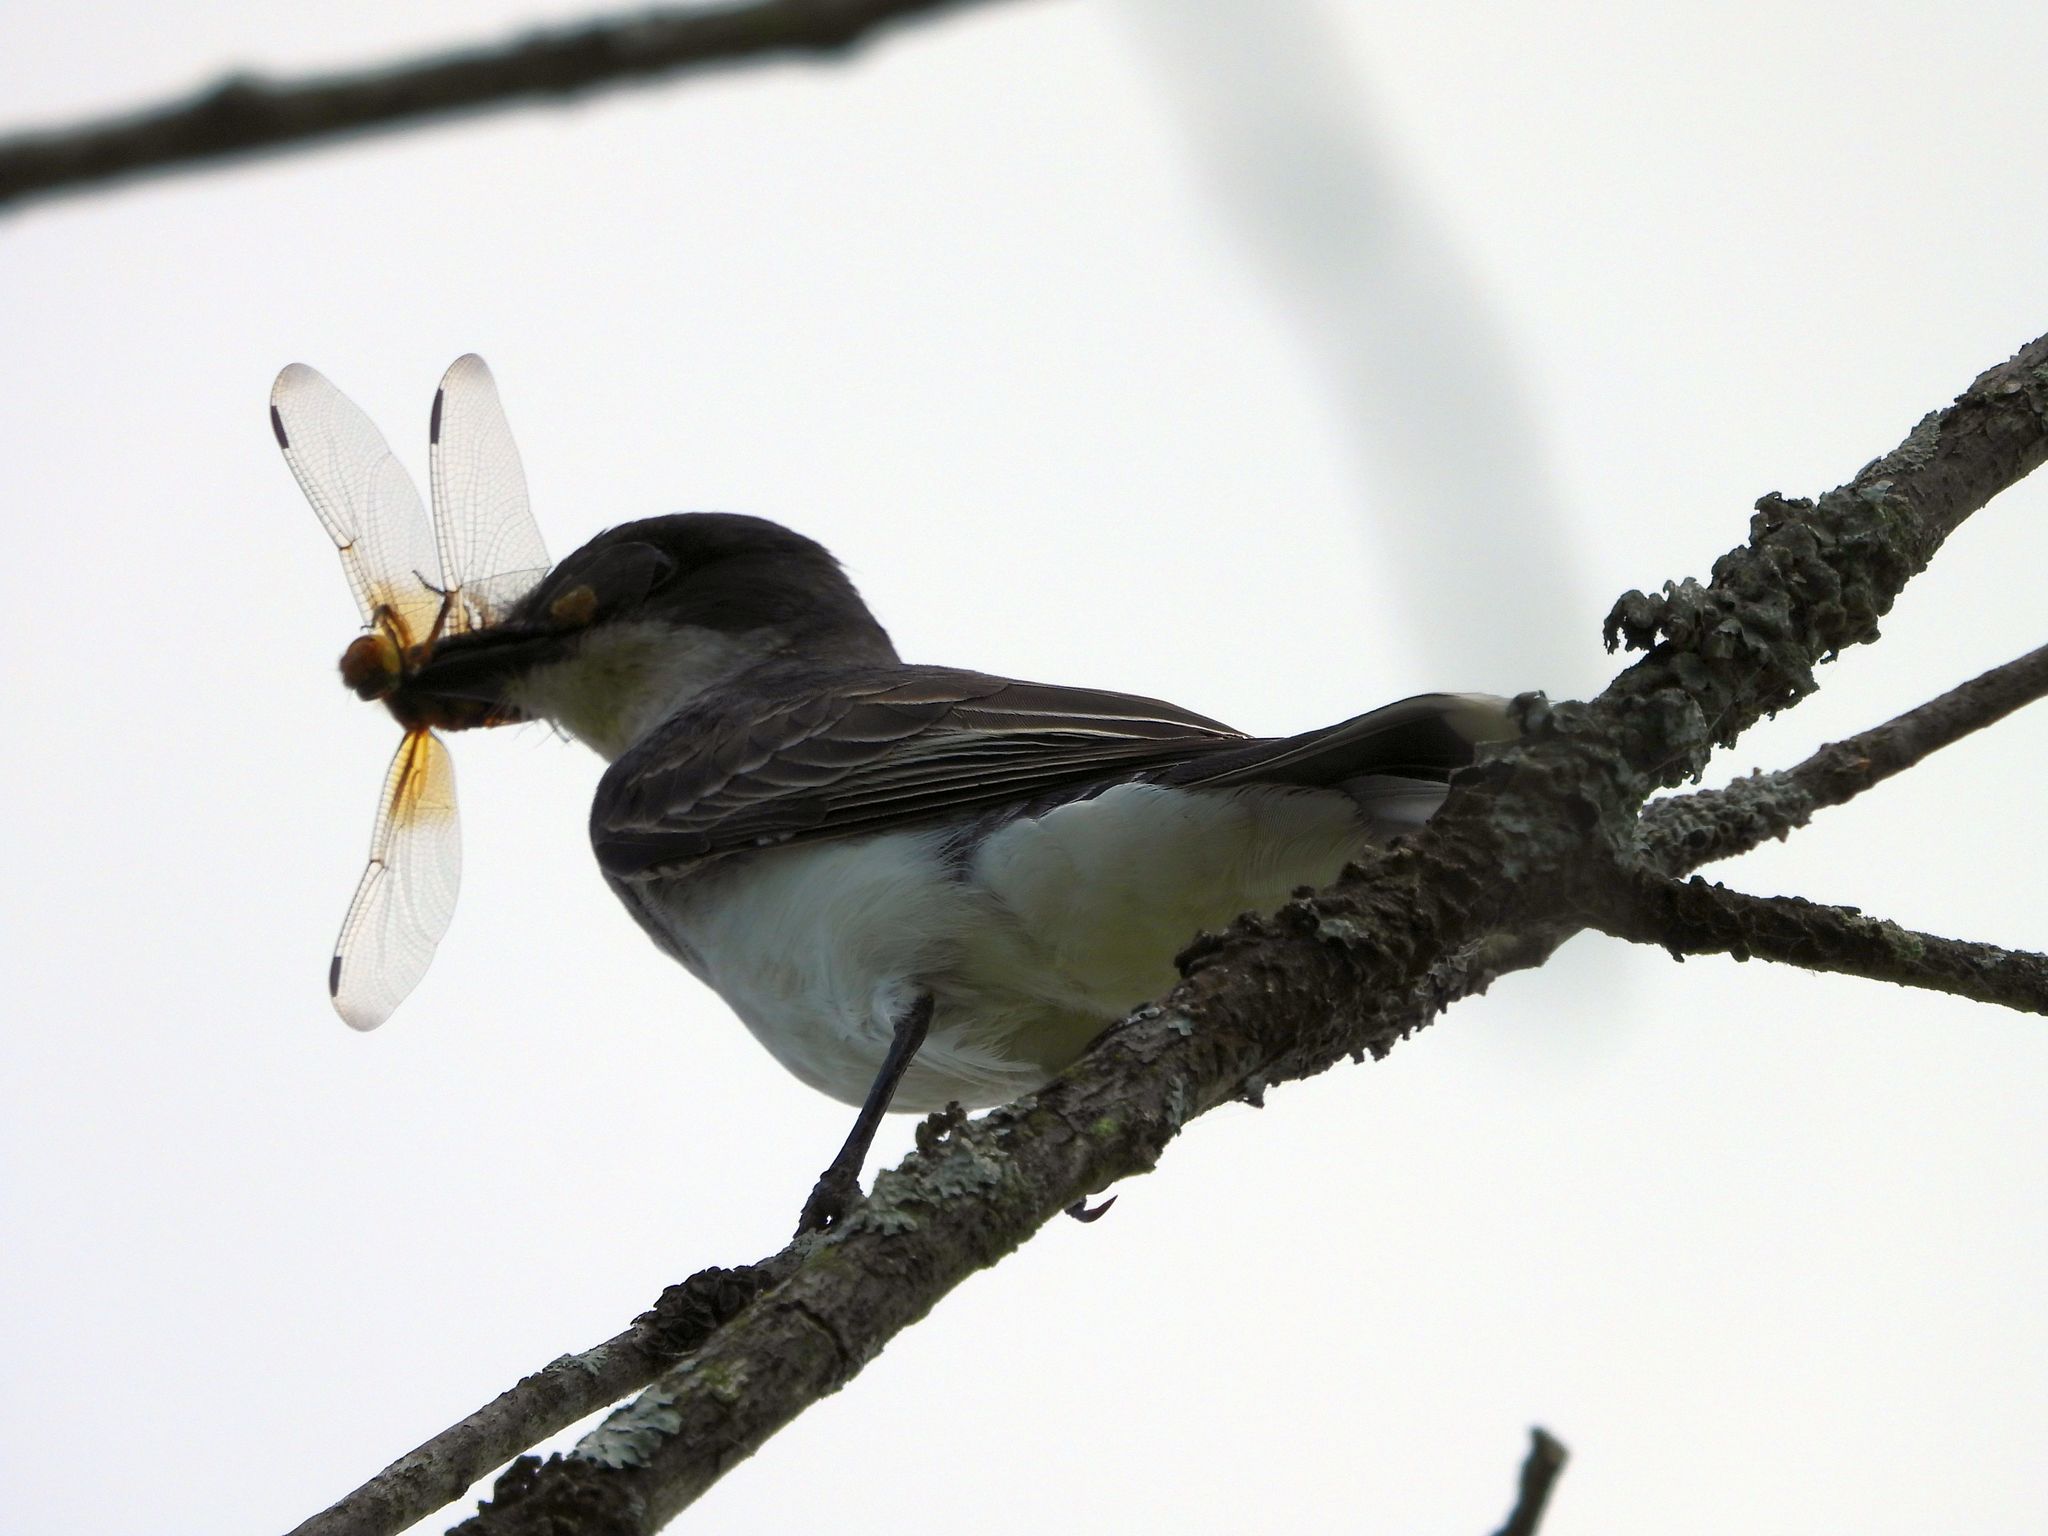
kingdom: Animalia
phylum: Chordata
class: Aves
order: Passeriformes
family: Tyrannidae
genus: Tyrannus
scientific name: Tyrannus tyrannus
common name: Eastern kingbird
